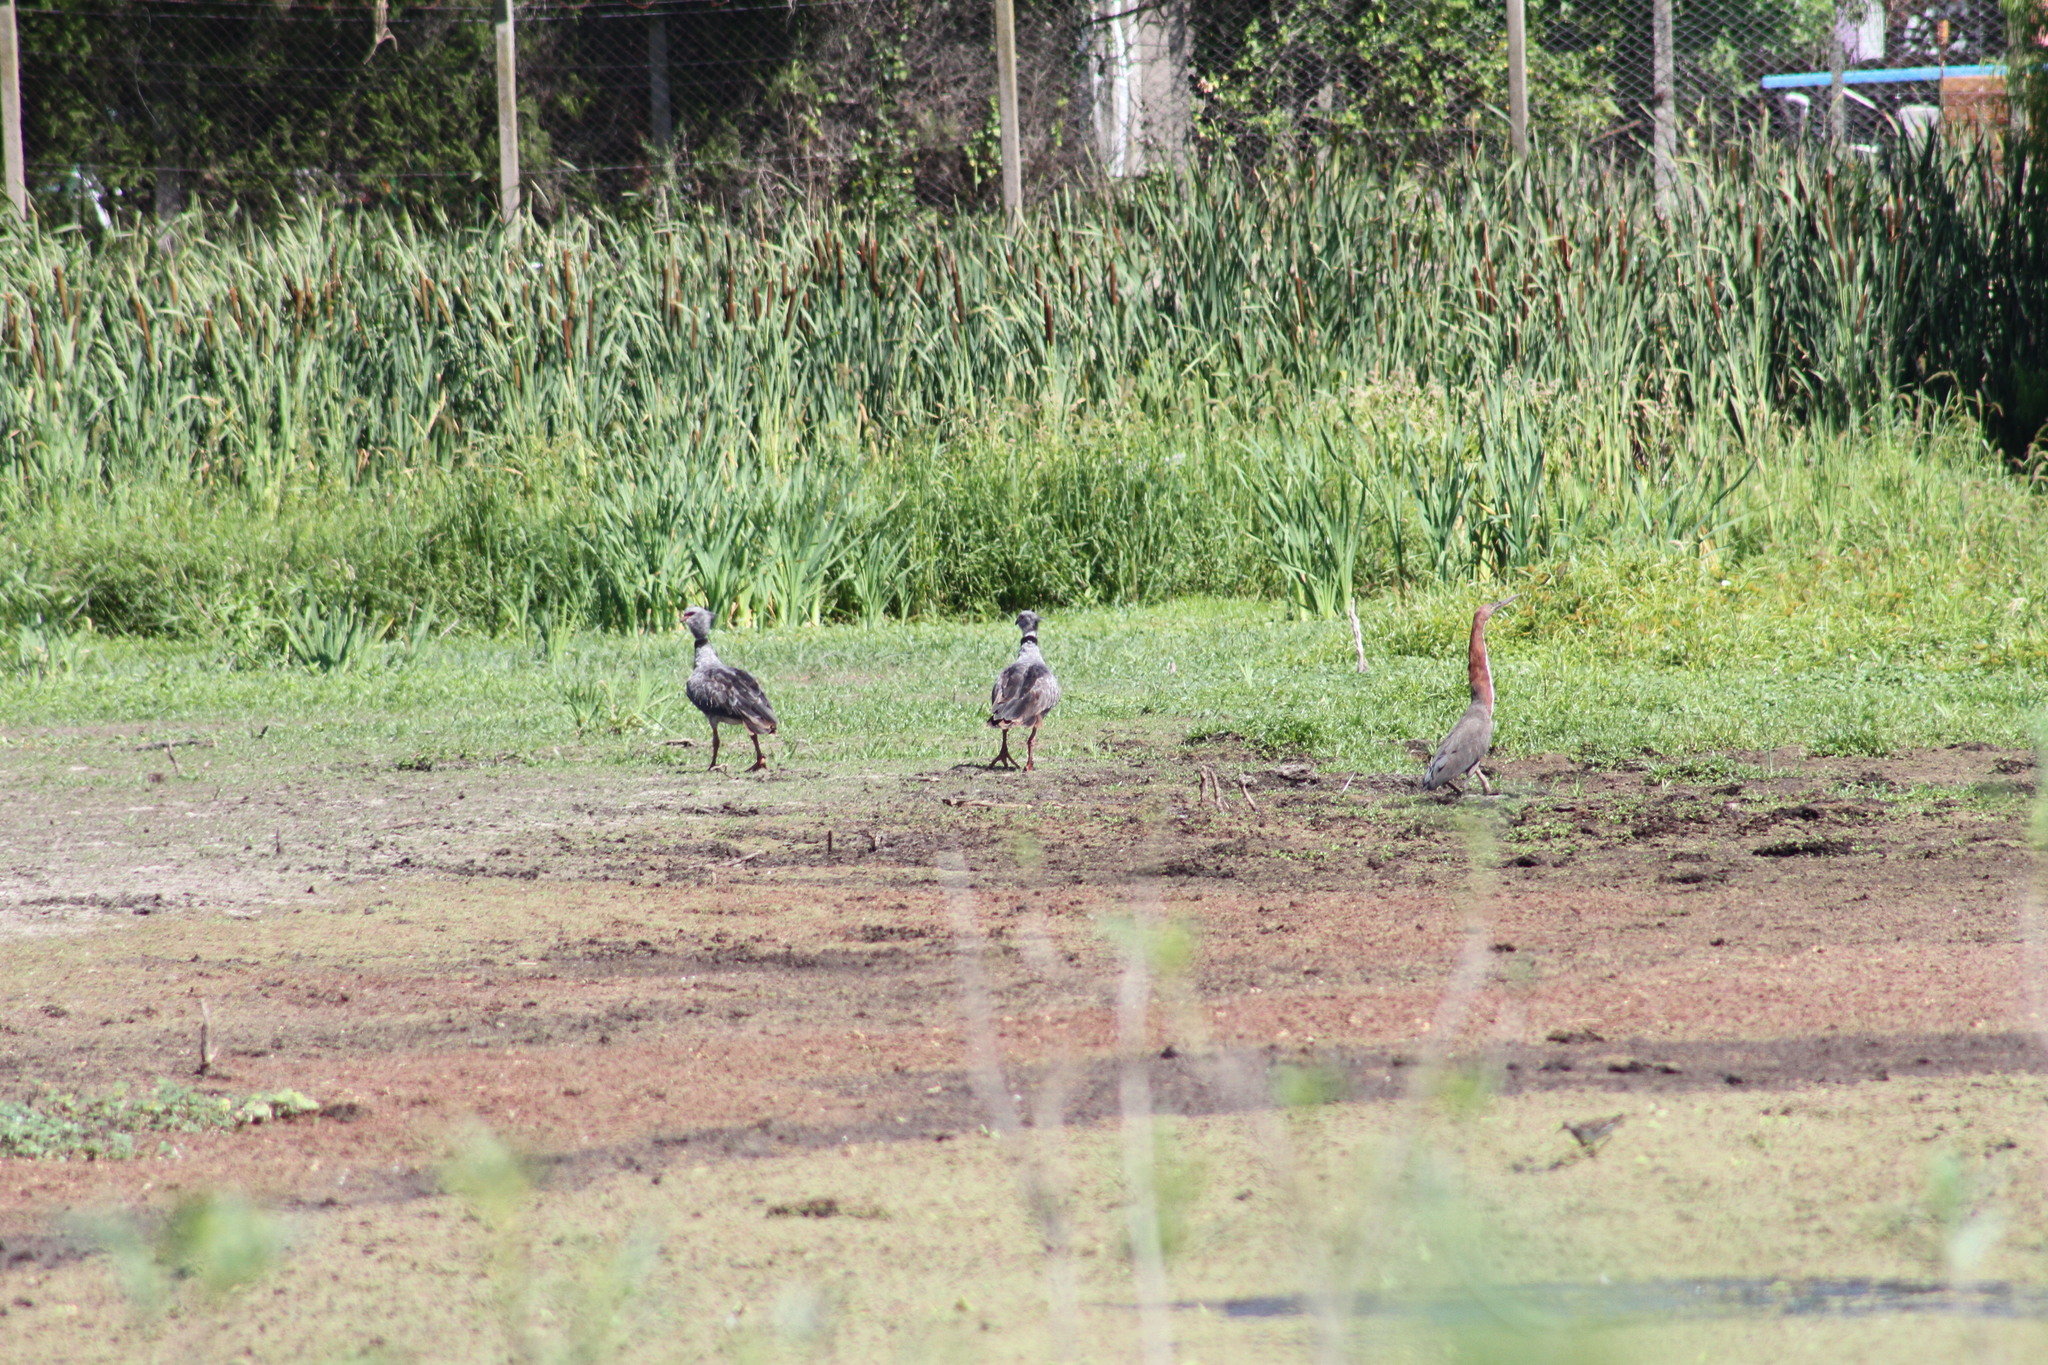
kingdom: Animalia
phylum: Chordata
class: Aves
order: Pelecaniformes
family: Ardeidae
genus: Tigrisoma
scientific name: Tigrisoma lineatum
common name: Rufescent tiger-heron
